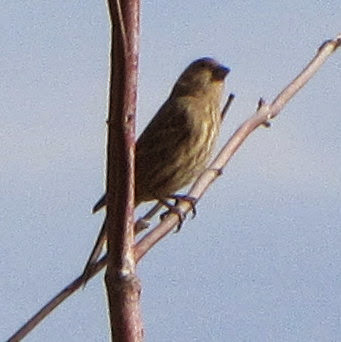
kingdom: Animalia
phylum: Chordata
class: Aves
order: Passeriformes
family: Fringillidae
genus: Haemorhous
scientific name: Haemorhous mexicanus
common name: House finch
